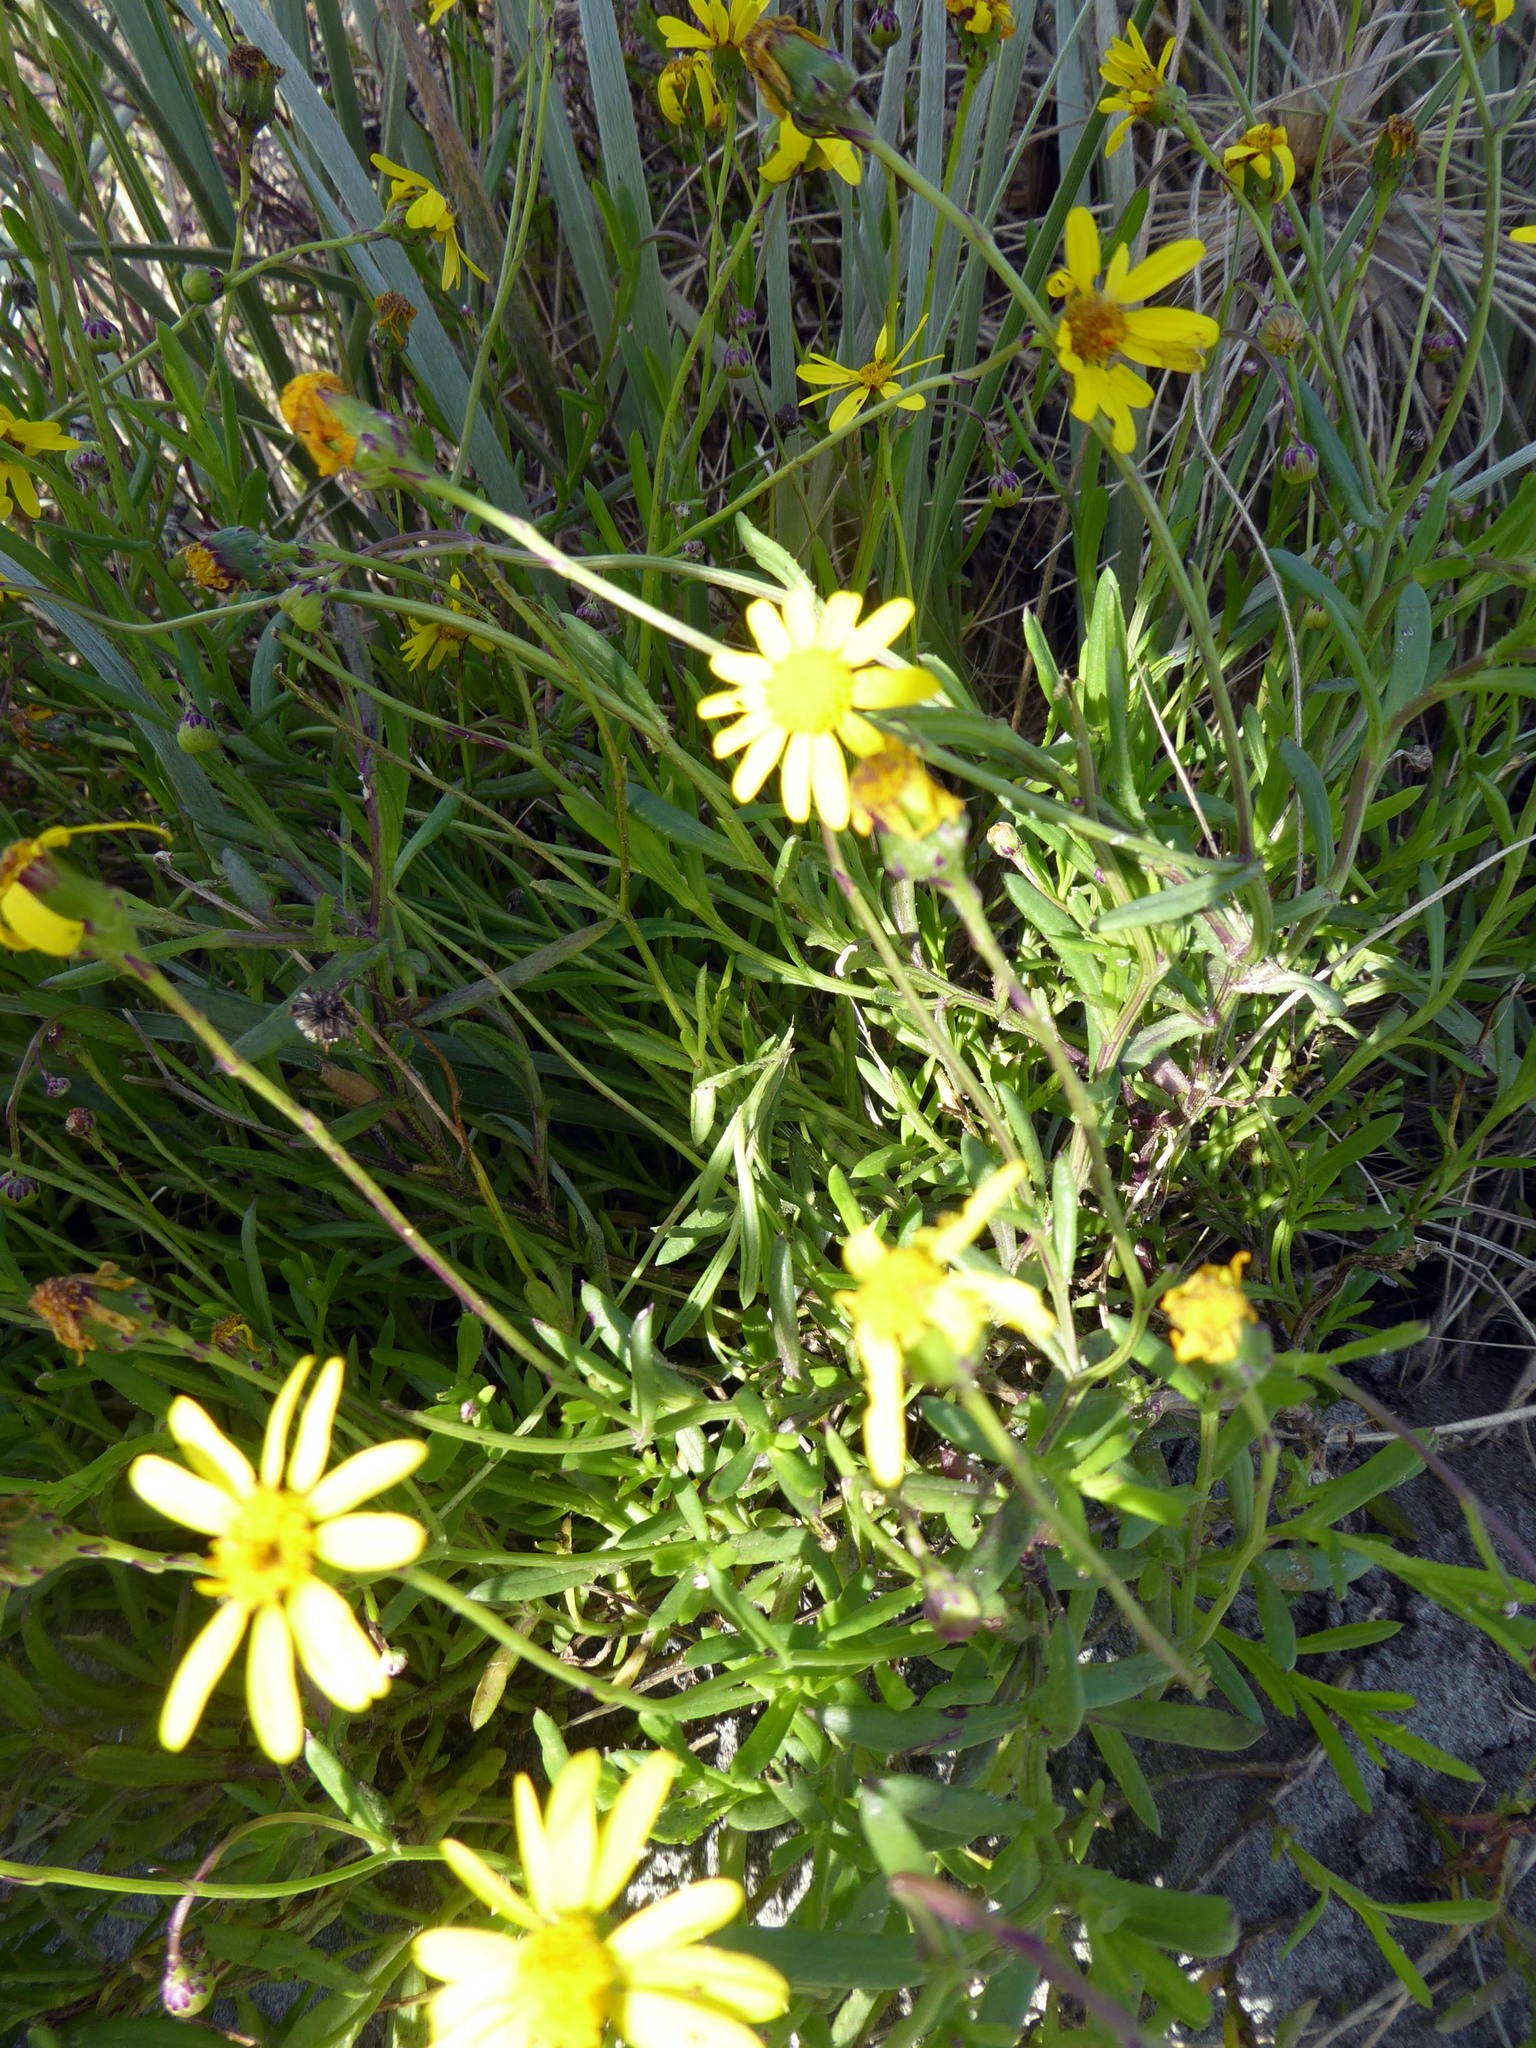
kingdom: Plantae
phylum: Tracheophyta
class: Magnoliopsida
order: Asterales
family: Asteraceae
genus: Senecio
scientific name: Senecio skirrhodon
